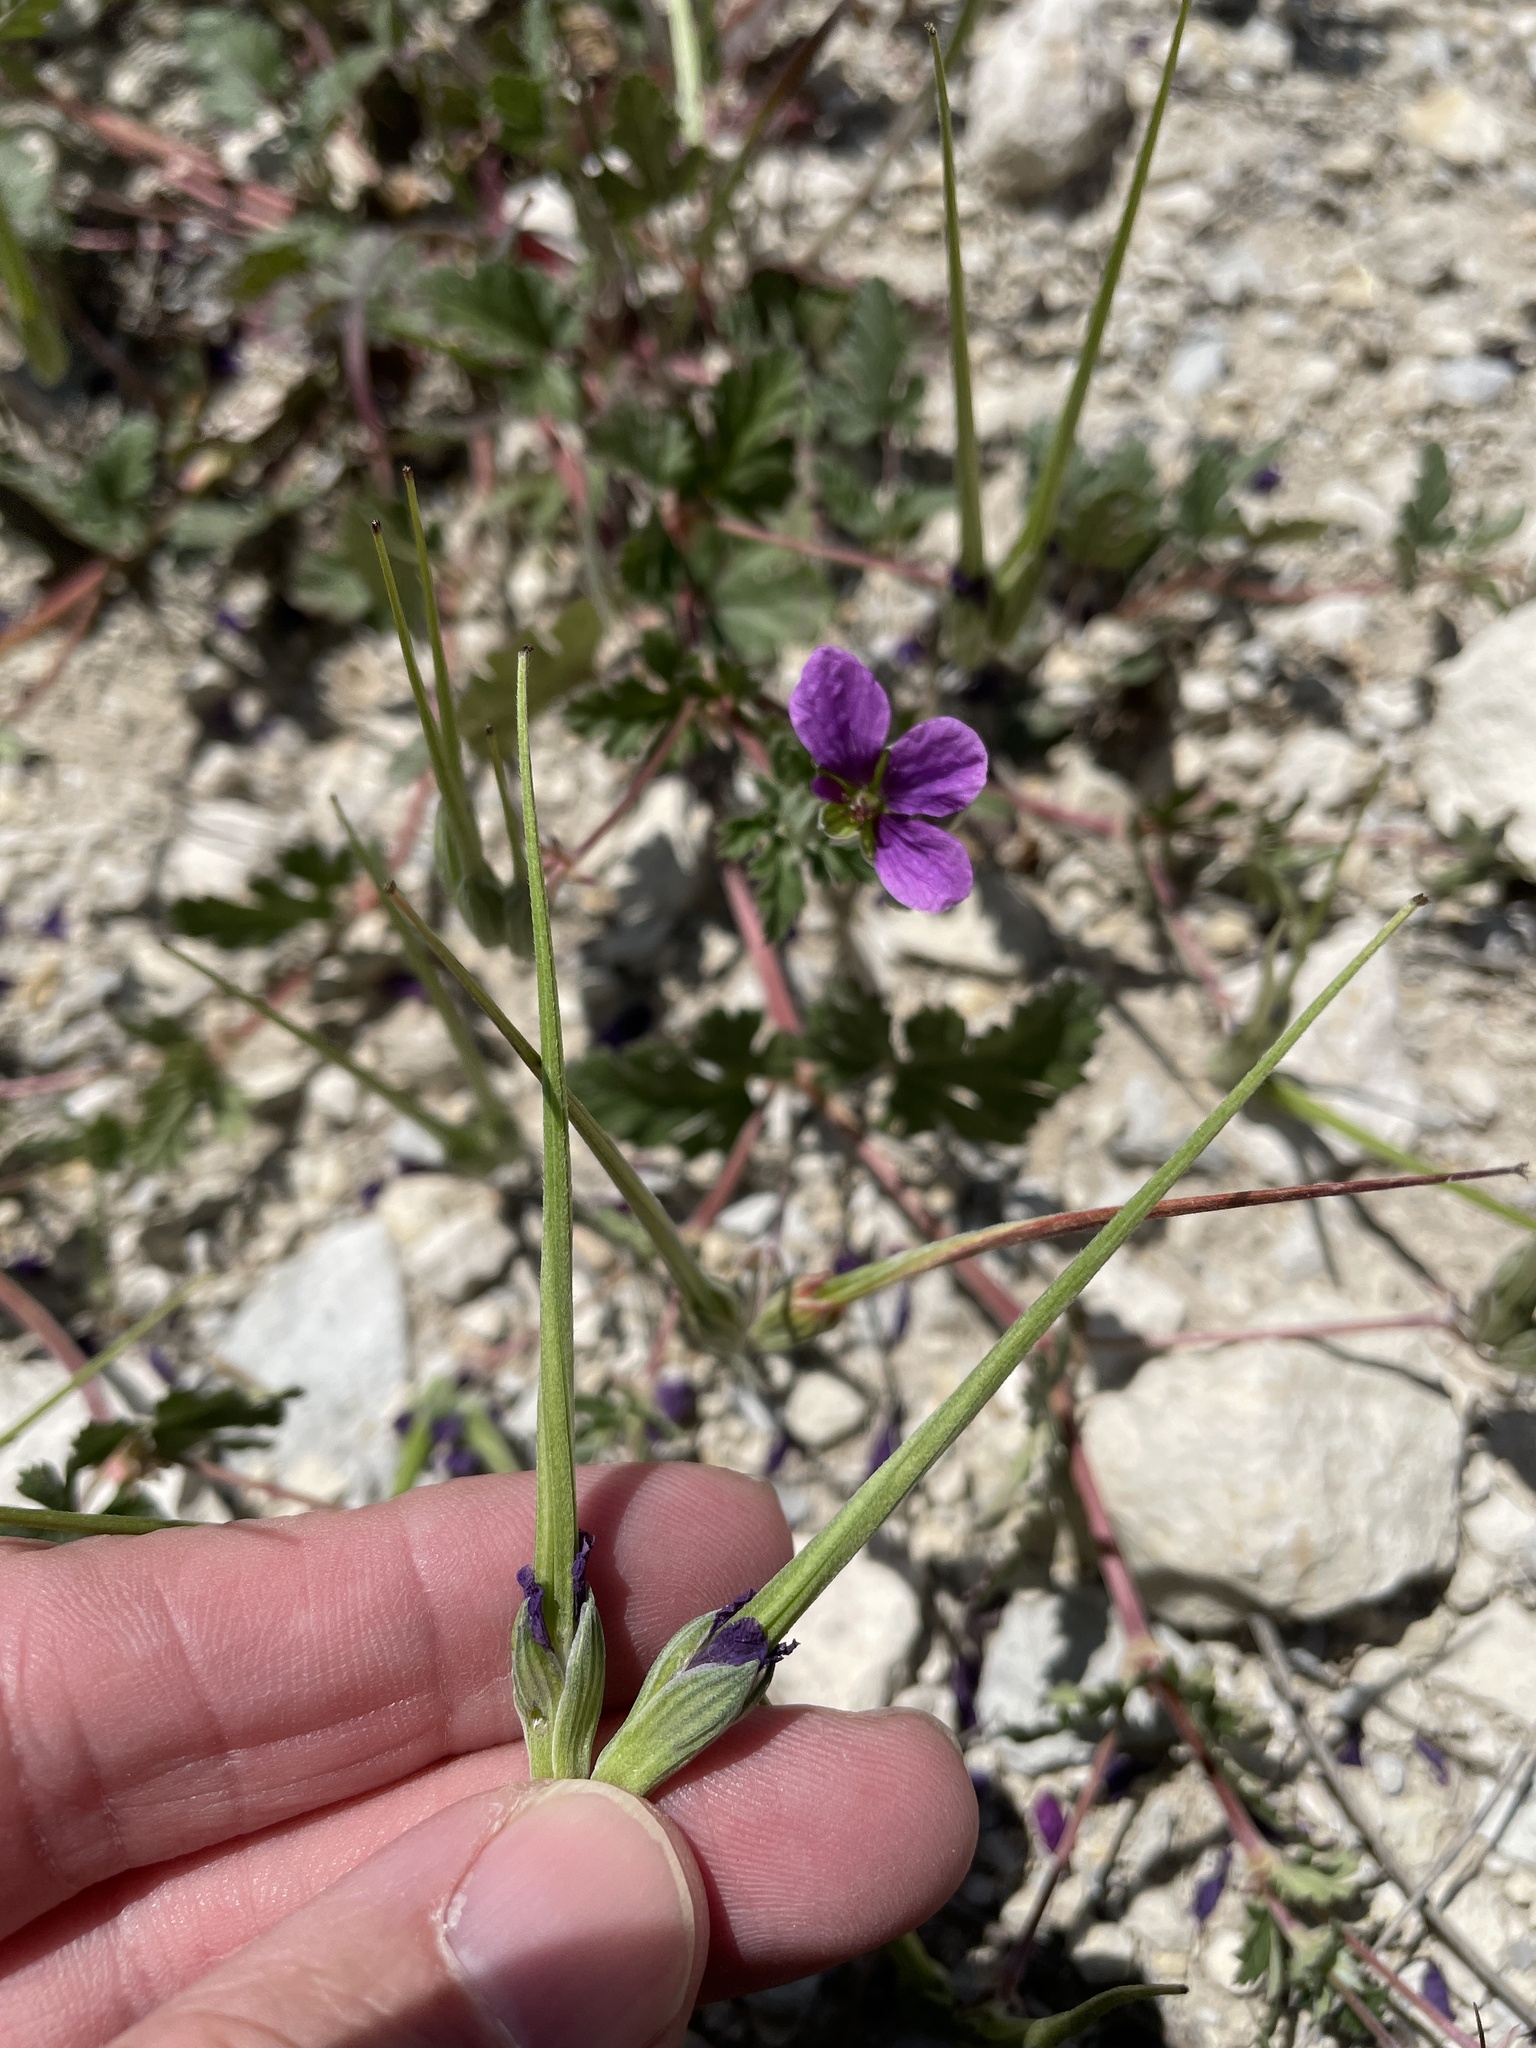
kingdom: Plantae
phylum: Tracheophyta
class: Magnoliopsida
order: Geraniales
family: Geraniaceae
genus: Erodium
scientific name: Erodium texanum
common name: Texas stork's-bill
